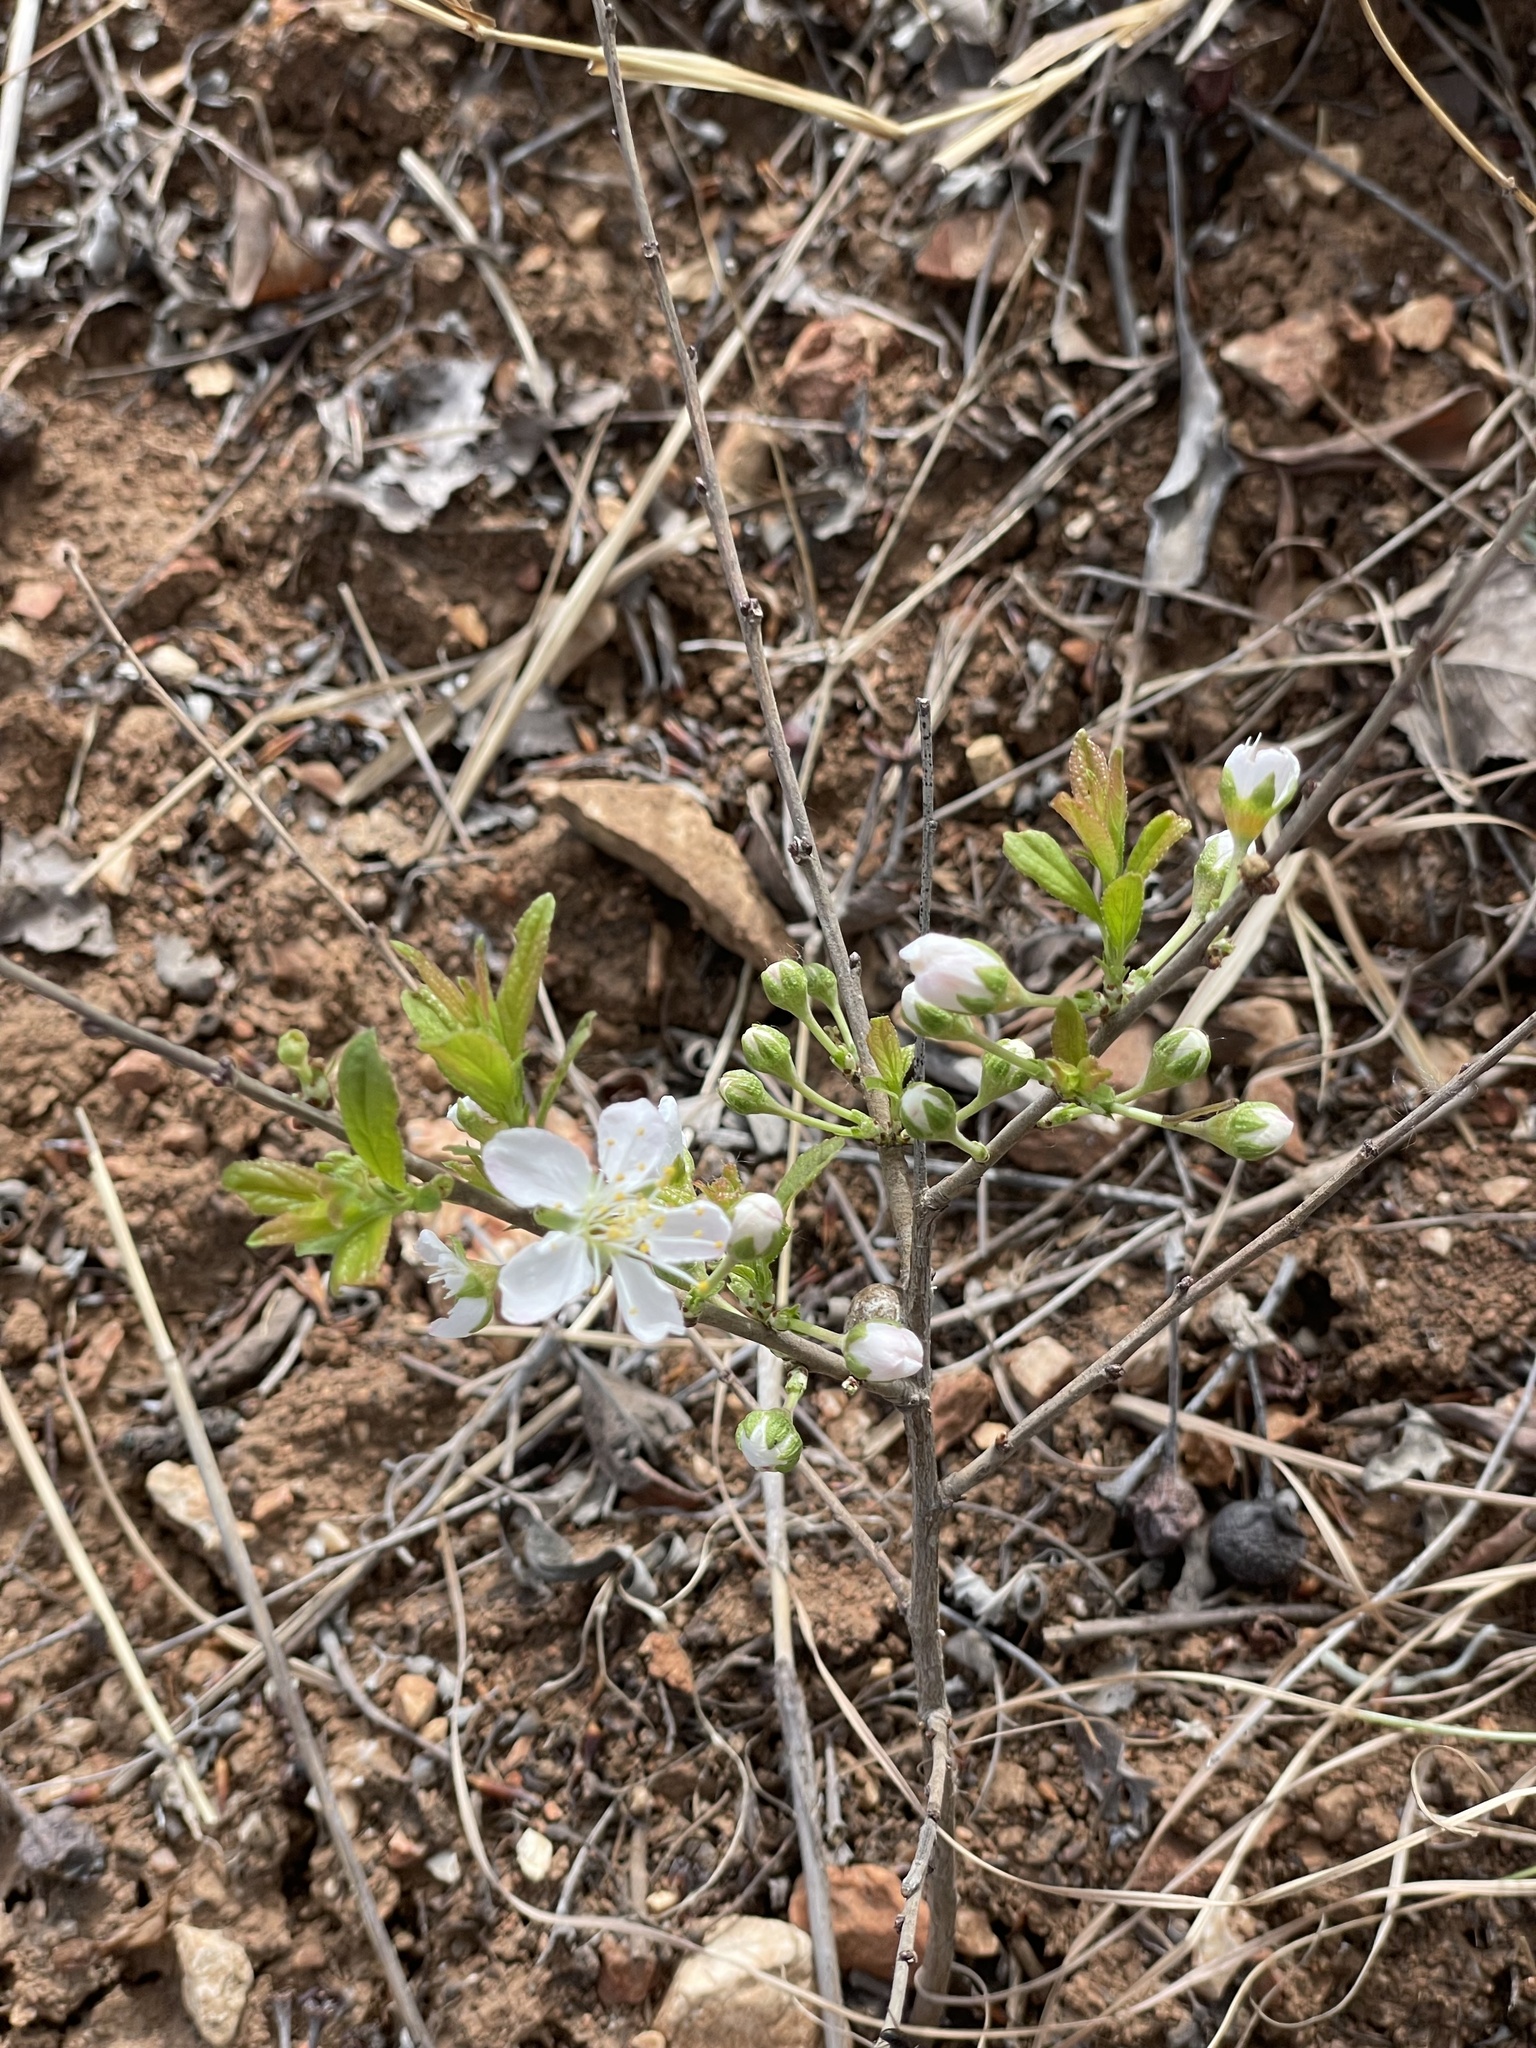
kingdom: Plantae
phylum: Tracheophyta
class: Magnoliopsida
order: Rosales
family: Rosaceae
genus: Prunus
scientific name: Prunus humilis
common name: Humble bush cherry
